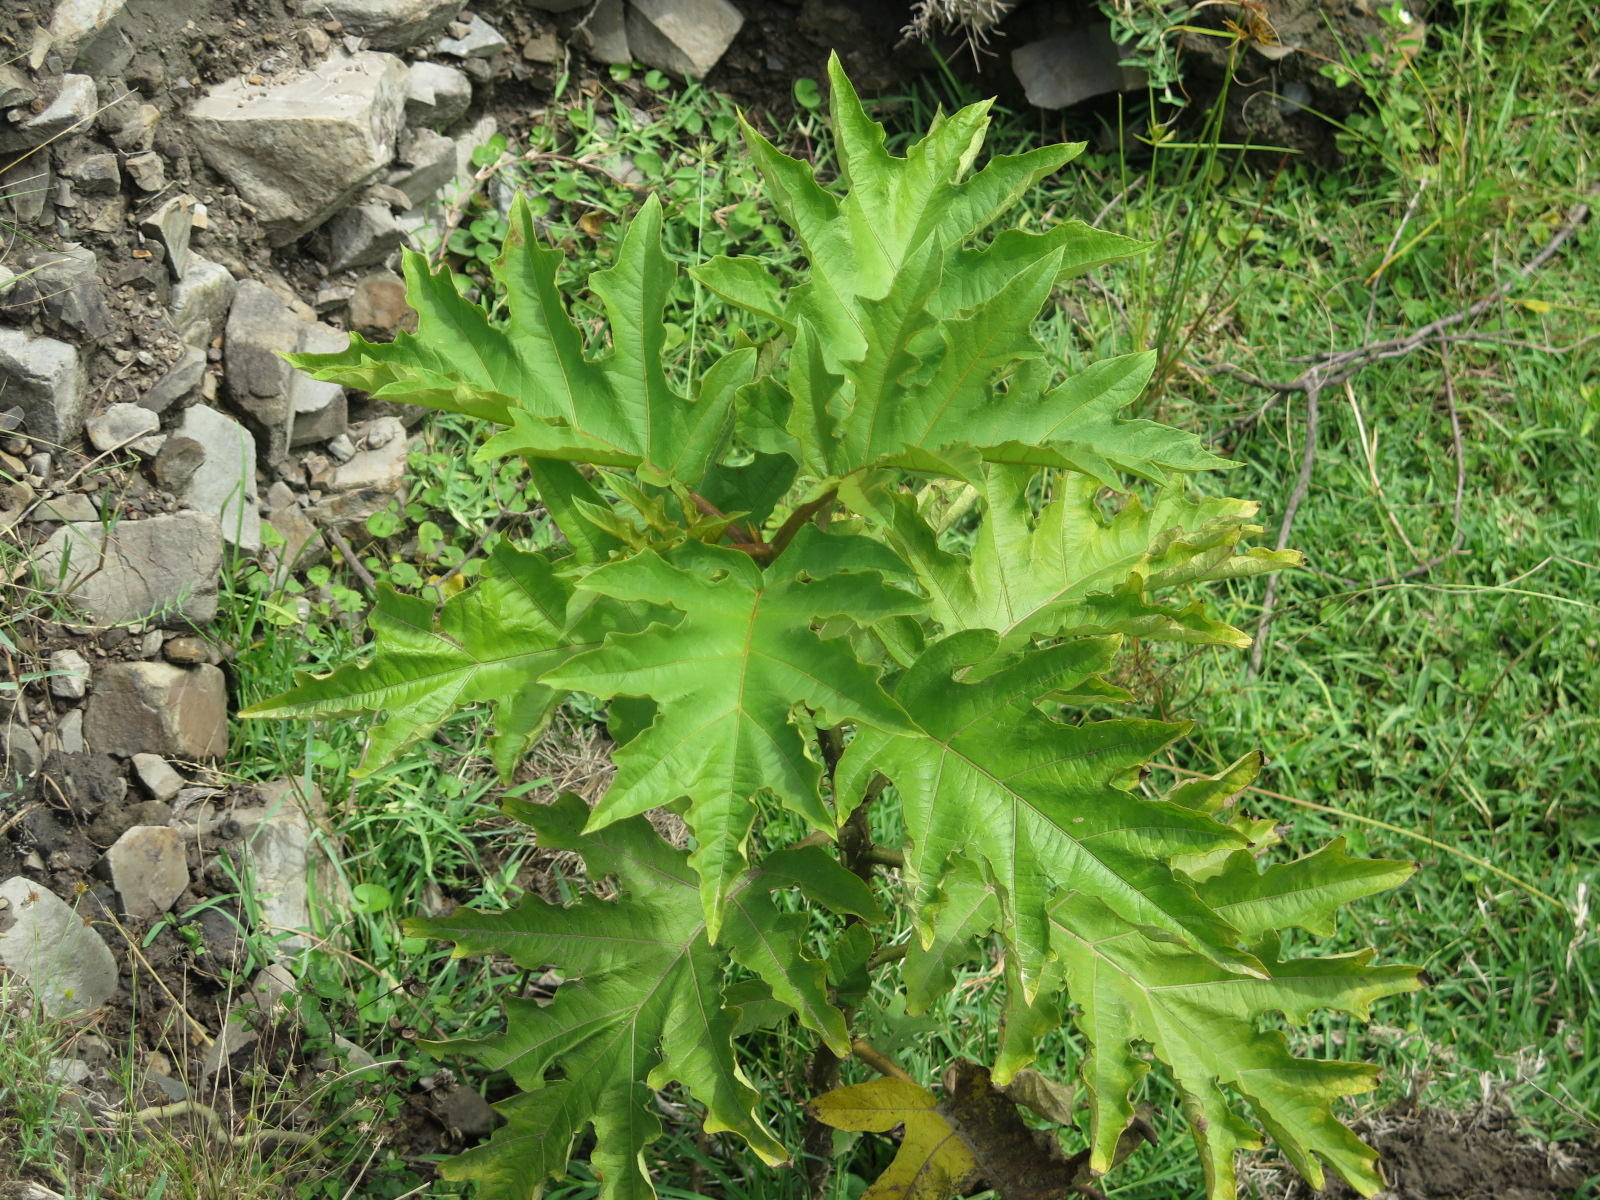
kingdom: Plantae
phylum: Tracheophyta
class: Magnoliopsida
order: Solanales
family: Solanaceae
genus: Solanum
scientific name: Solanum chrysotrichum
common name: Nightshade
